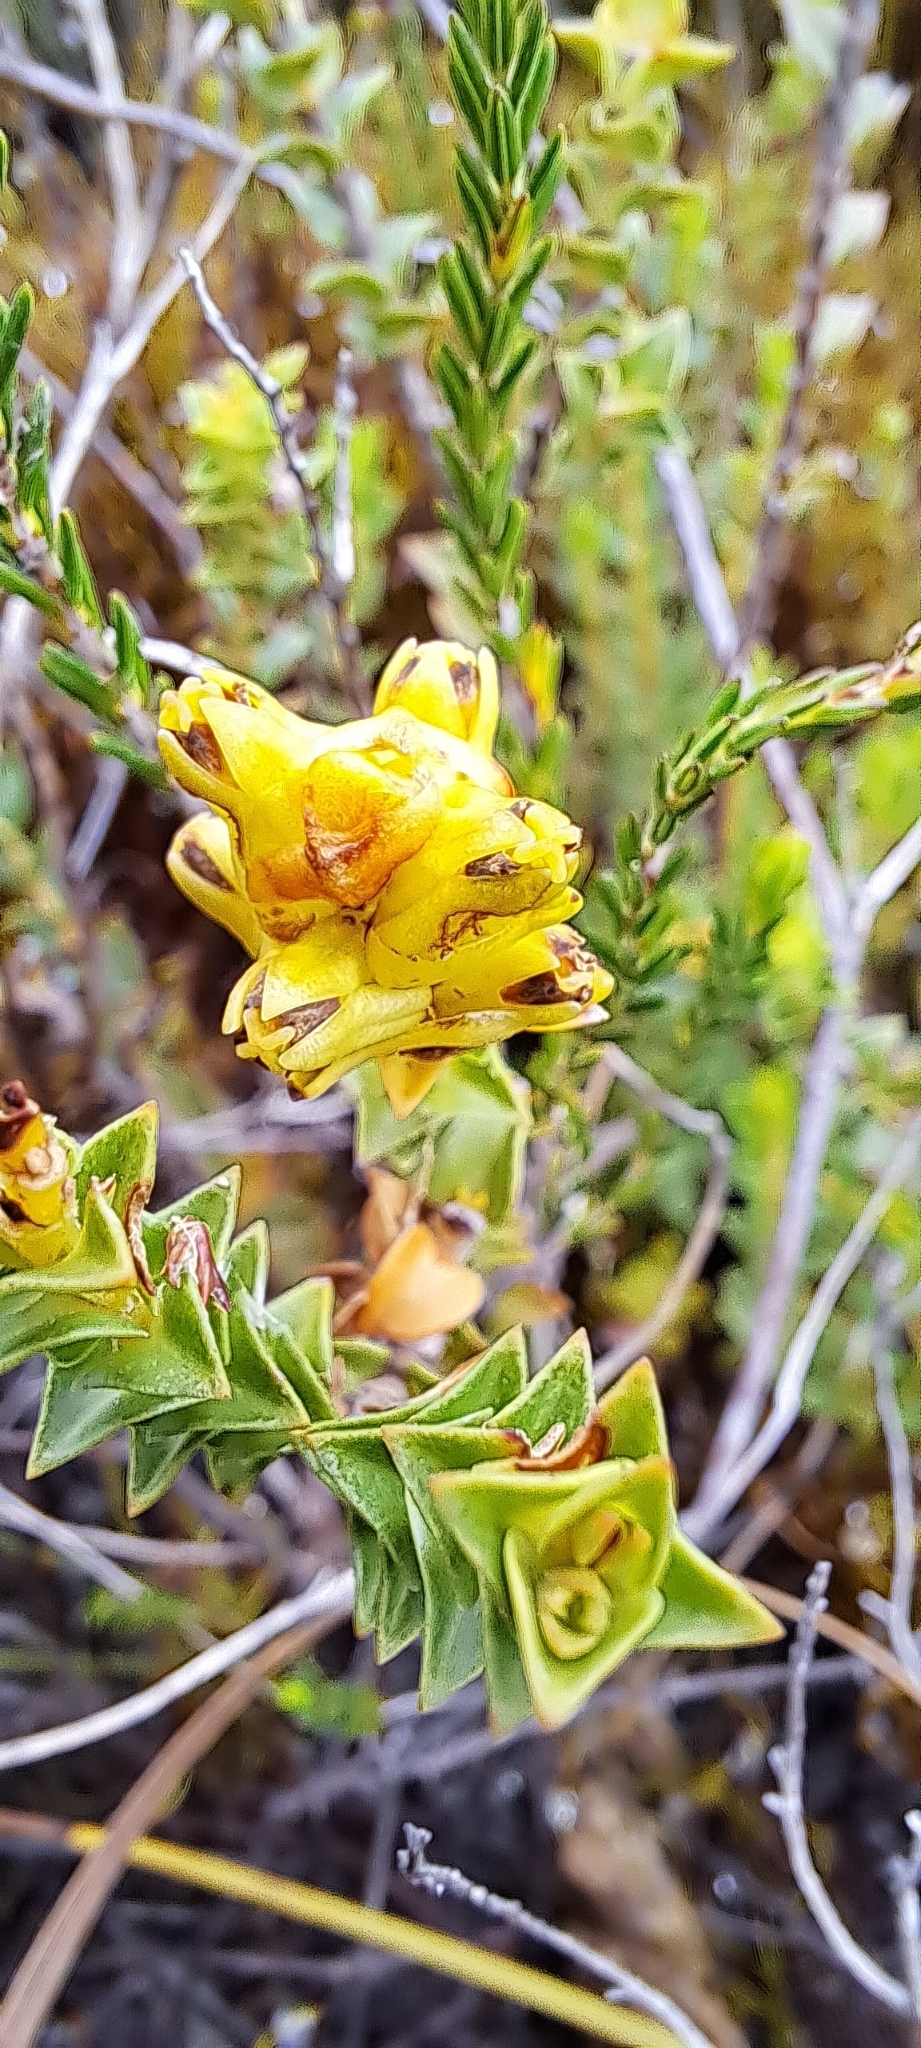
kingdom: Plantae
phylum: Tracheophyta
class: Magnoliopsida
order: Myrtales
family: Penaeaceae
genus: Penaea
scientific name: Penaea mucronata
